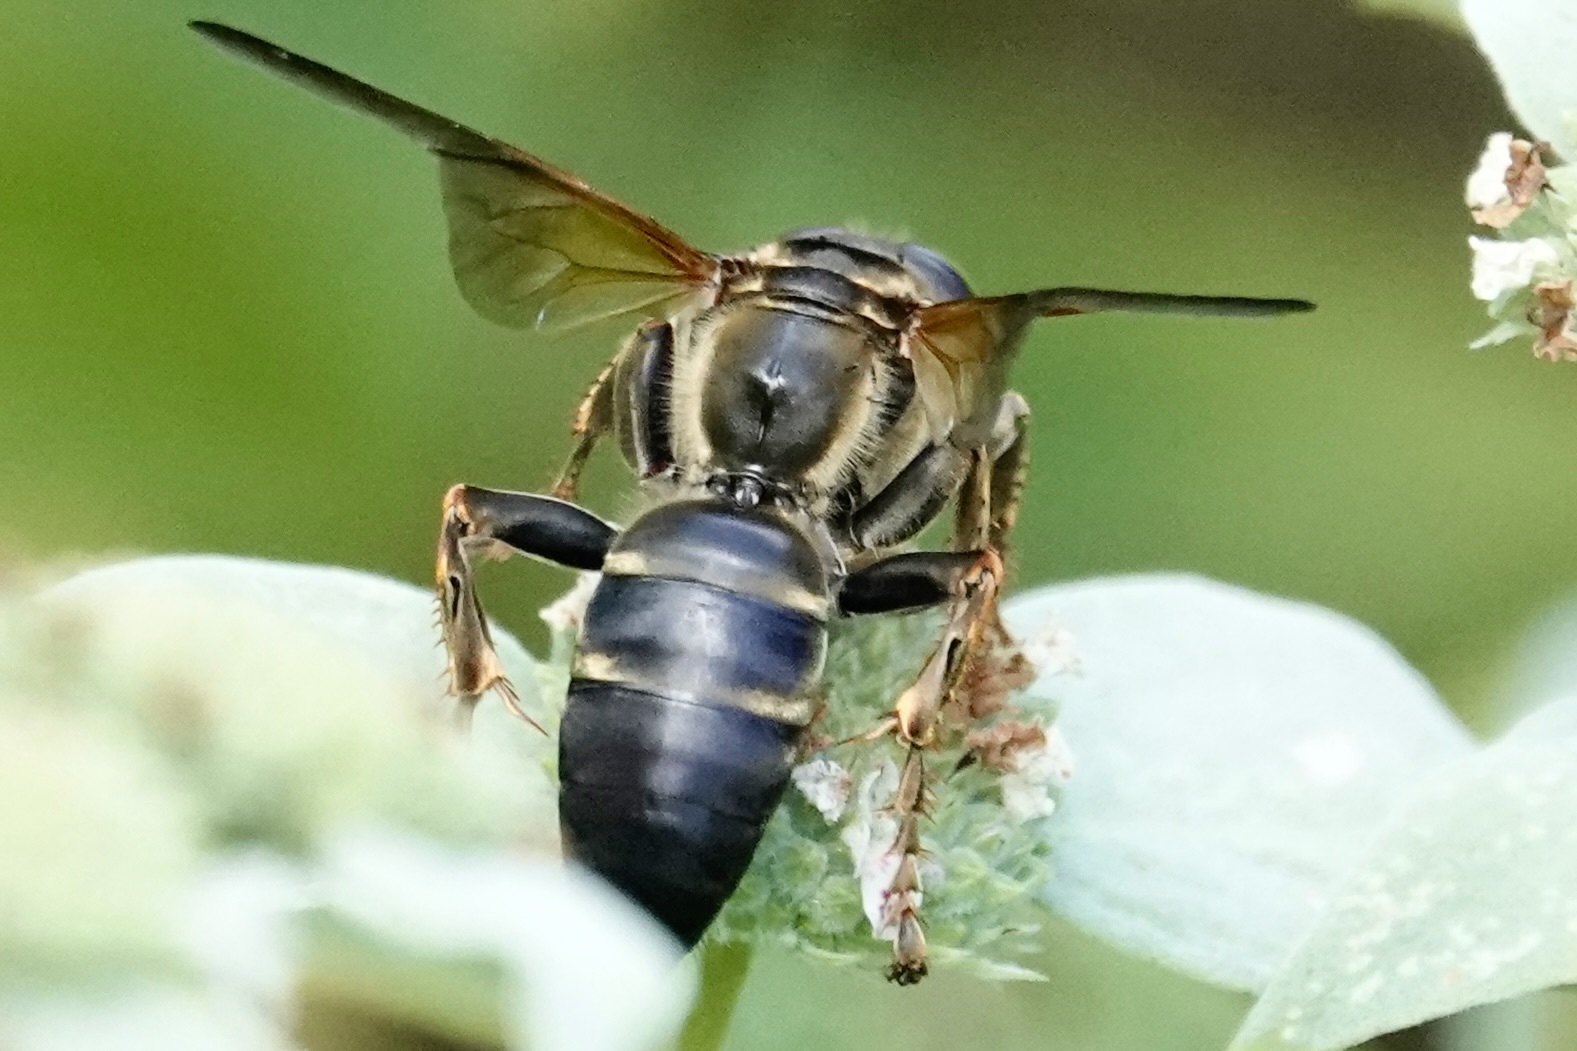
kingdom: Animalia
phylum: Arthropoda
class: Insecta
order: Hymenoptera
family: Crabronidae
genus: Tachytes
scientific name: Tachytes guatemalensis
